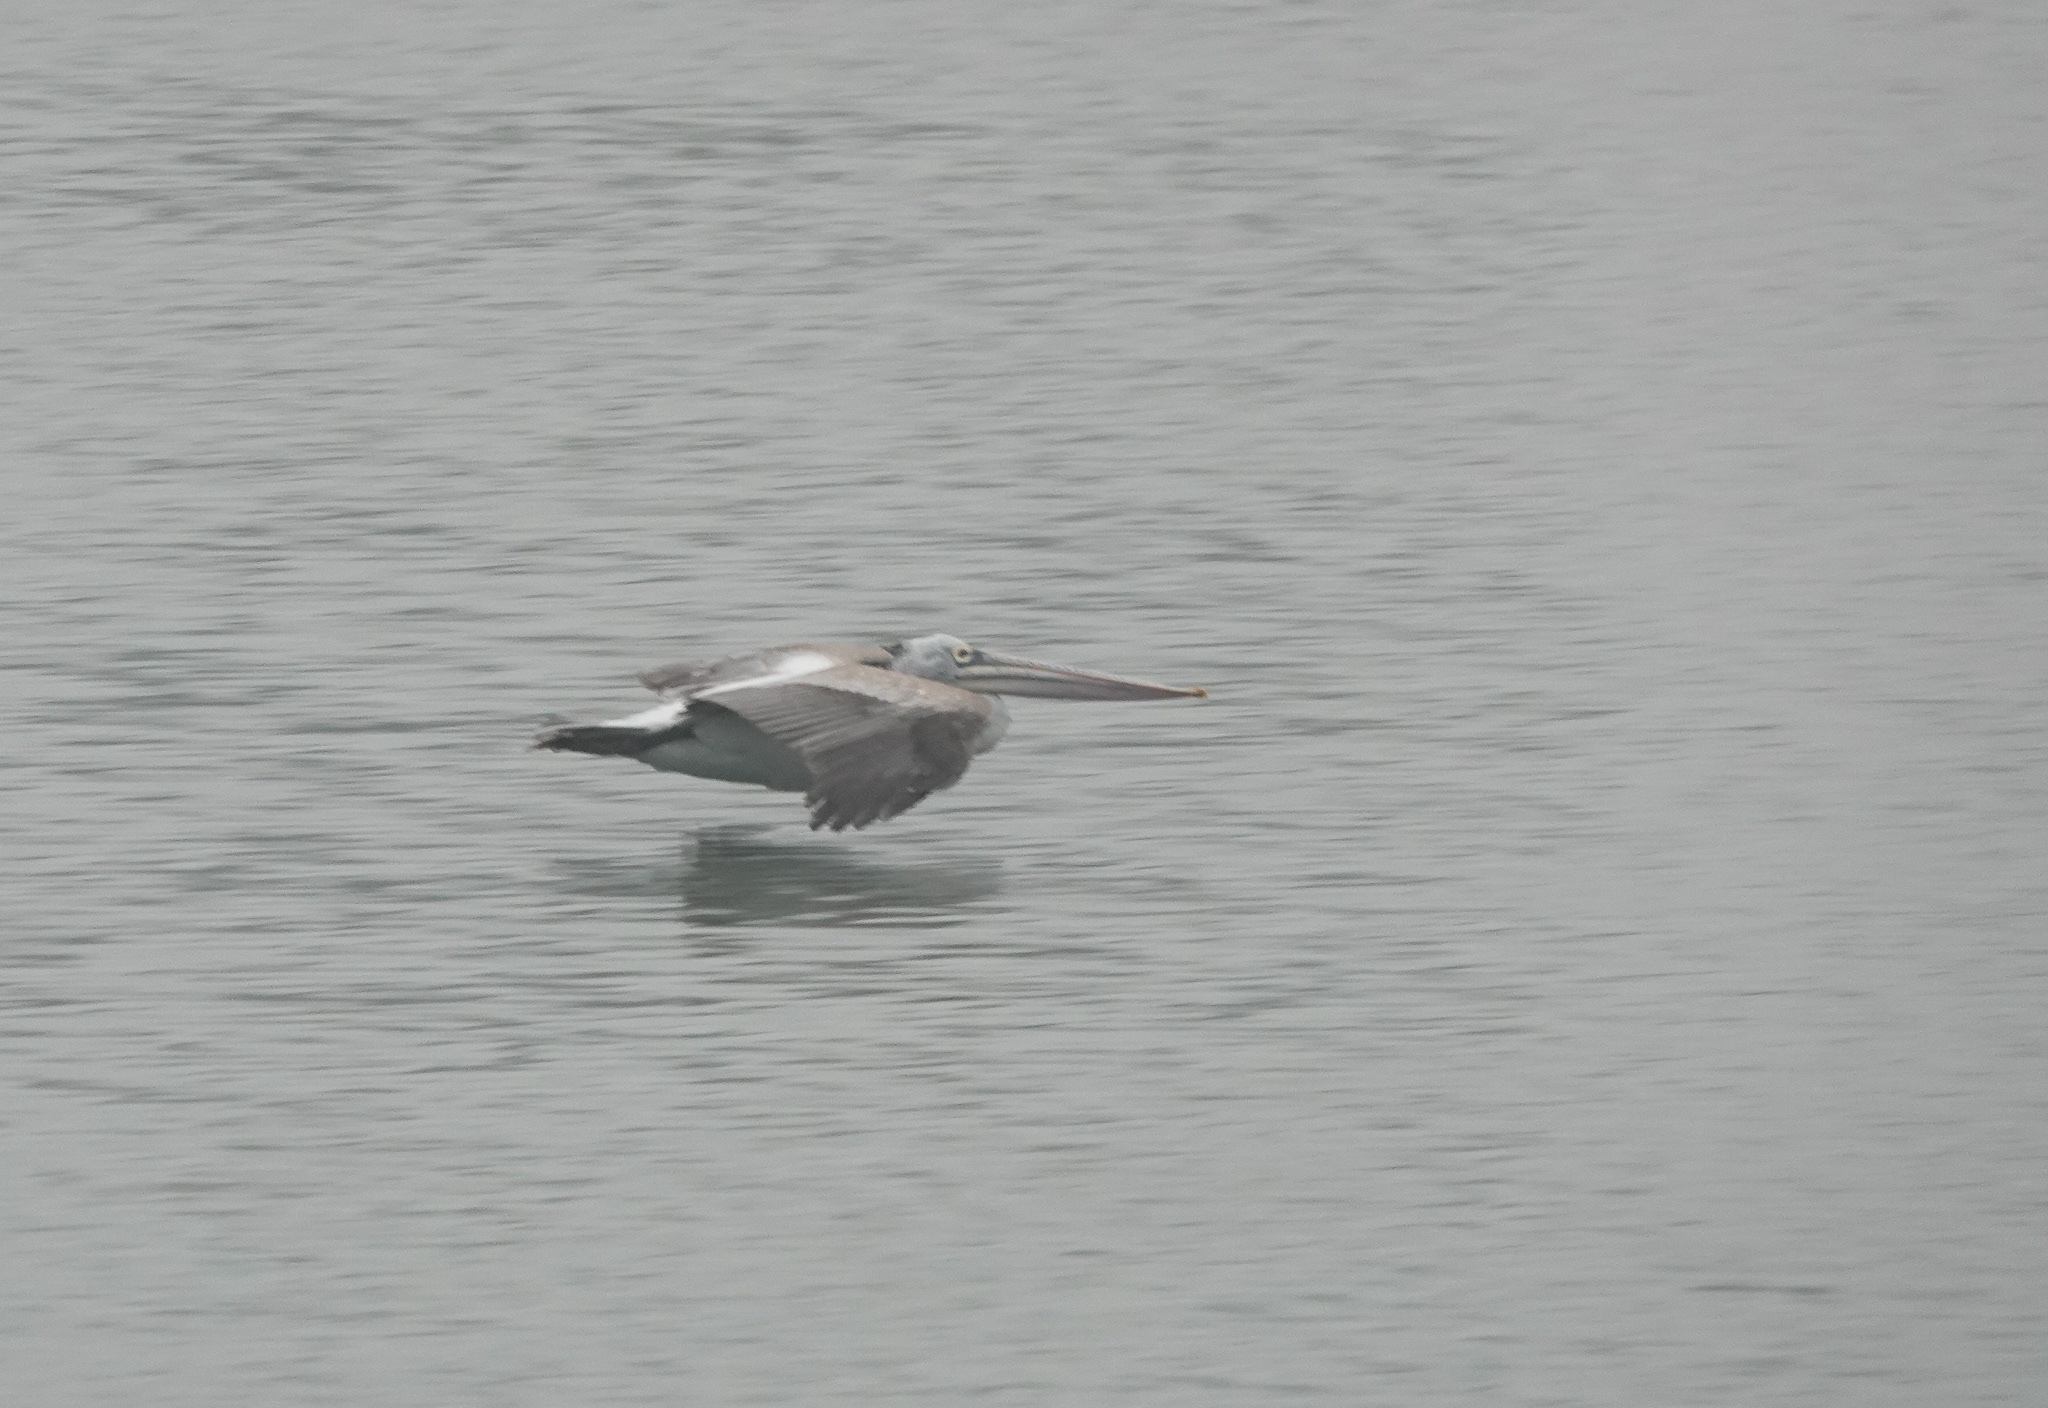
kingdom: Animalia
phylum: Chordata
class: Aves
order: Pelecaniformes
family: Pelecanidae
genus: Pelecanus
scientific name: Pelecanus philippensis
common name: Spot-billed pelican
